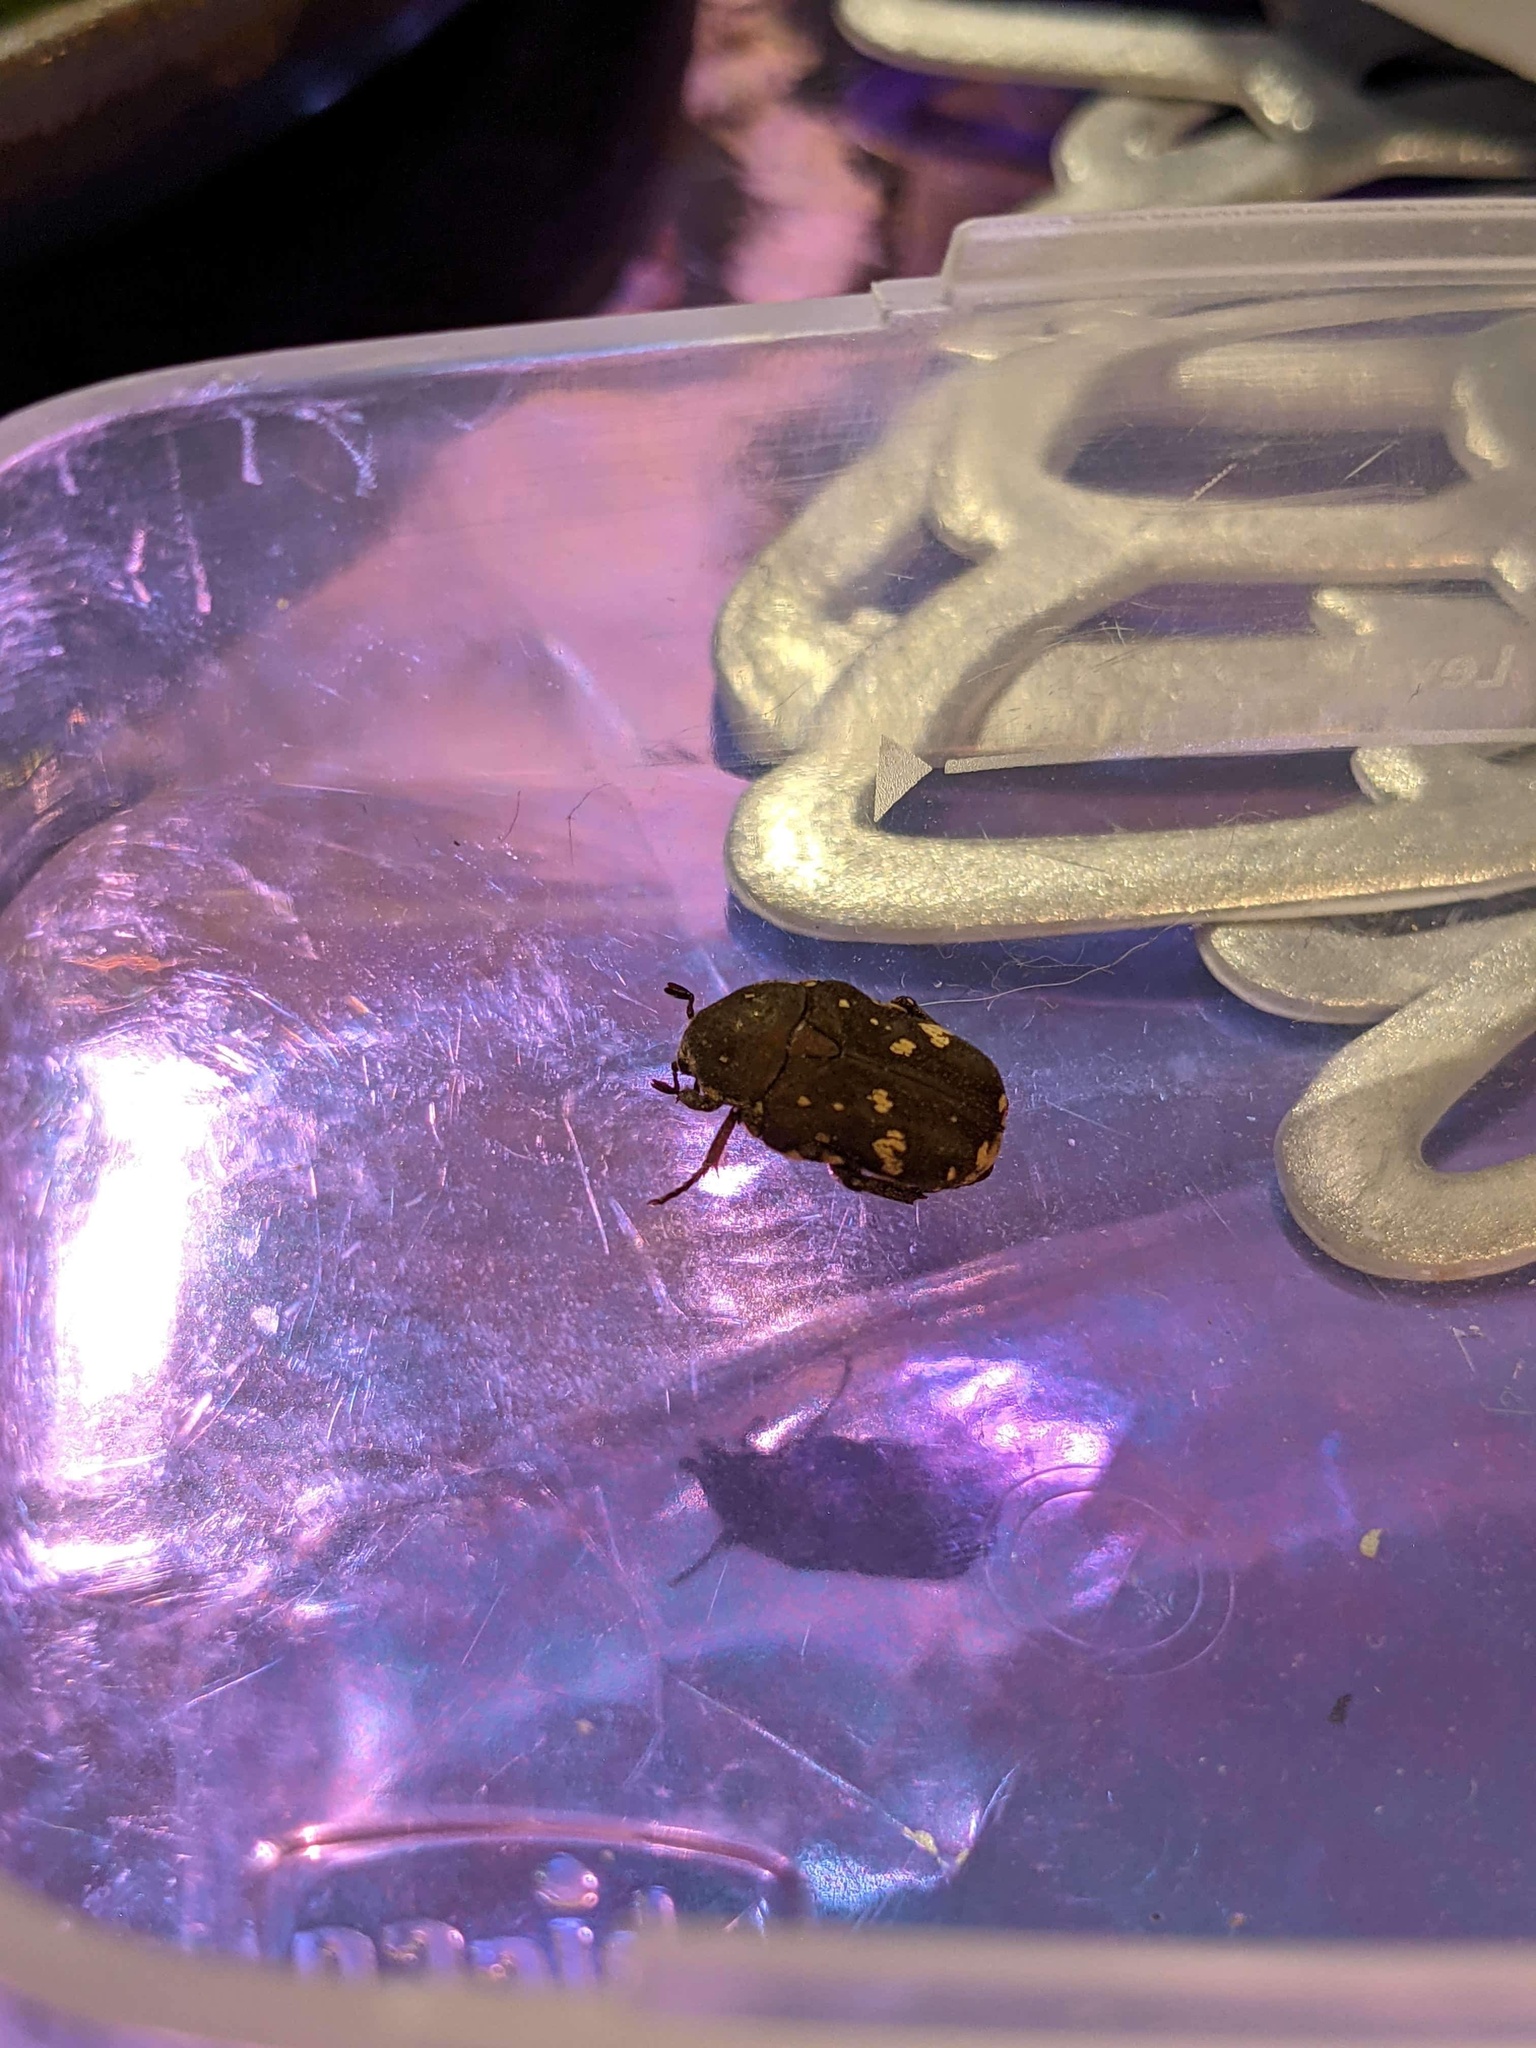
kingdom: Animalia
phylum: Arthropoda
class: Insecta
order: Coleoptera
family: Scarabaeidae
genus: Glycyphana
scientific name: Glycyphana stolata
